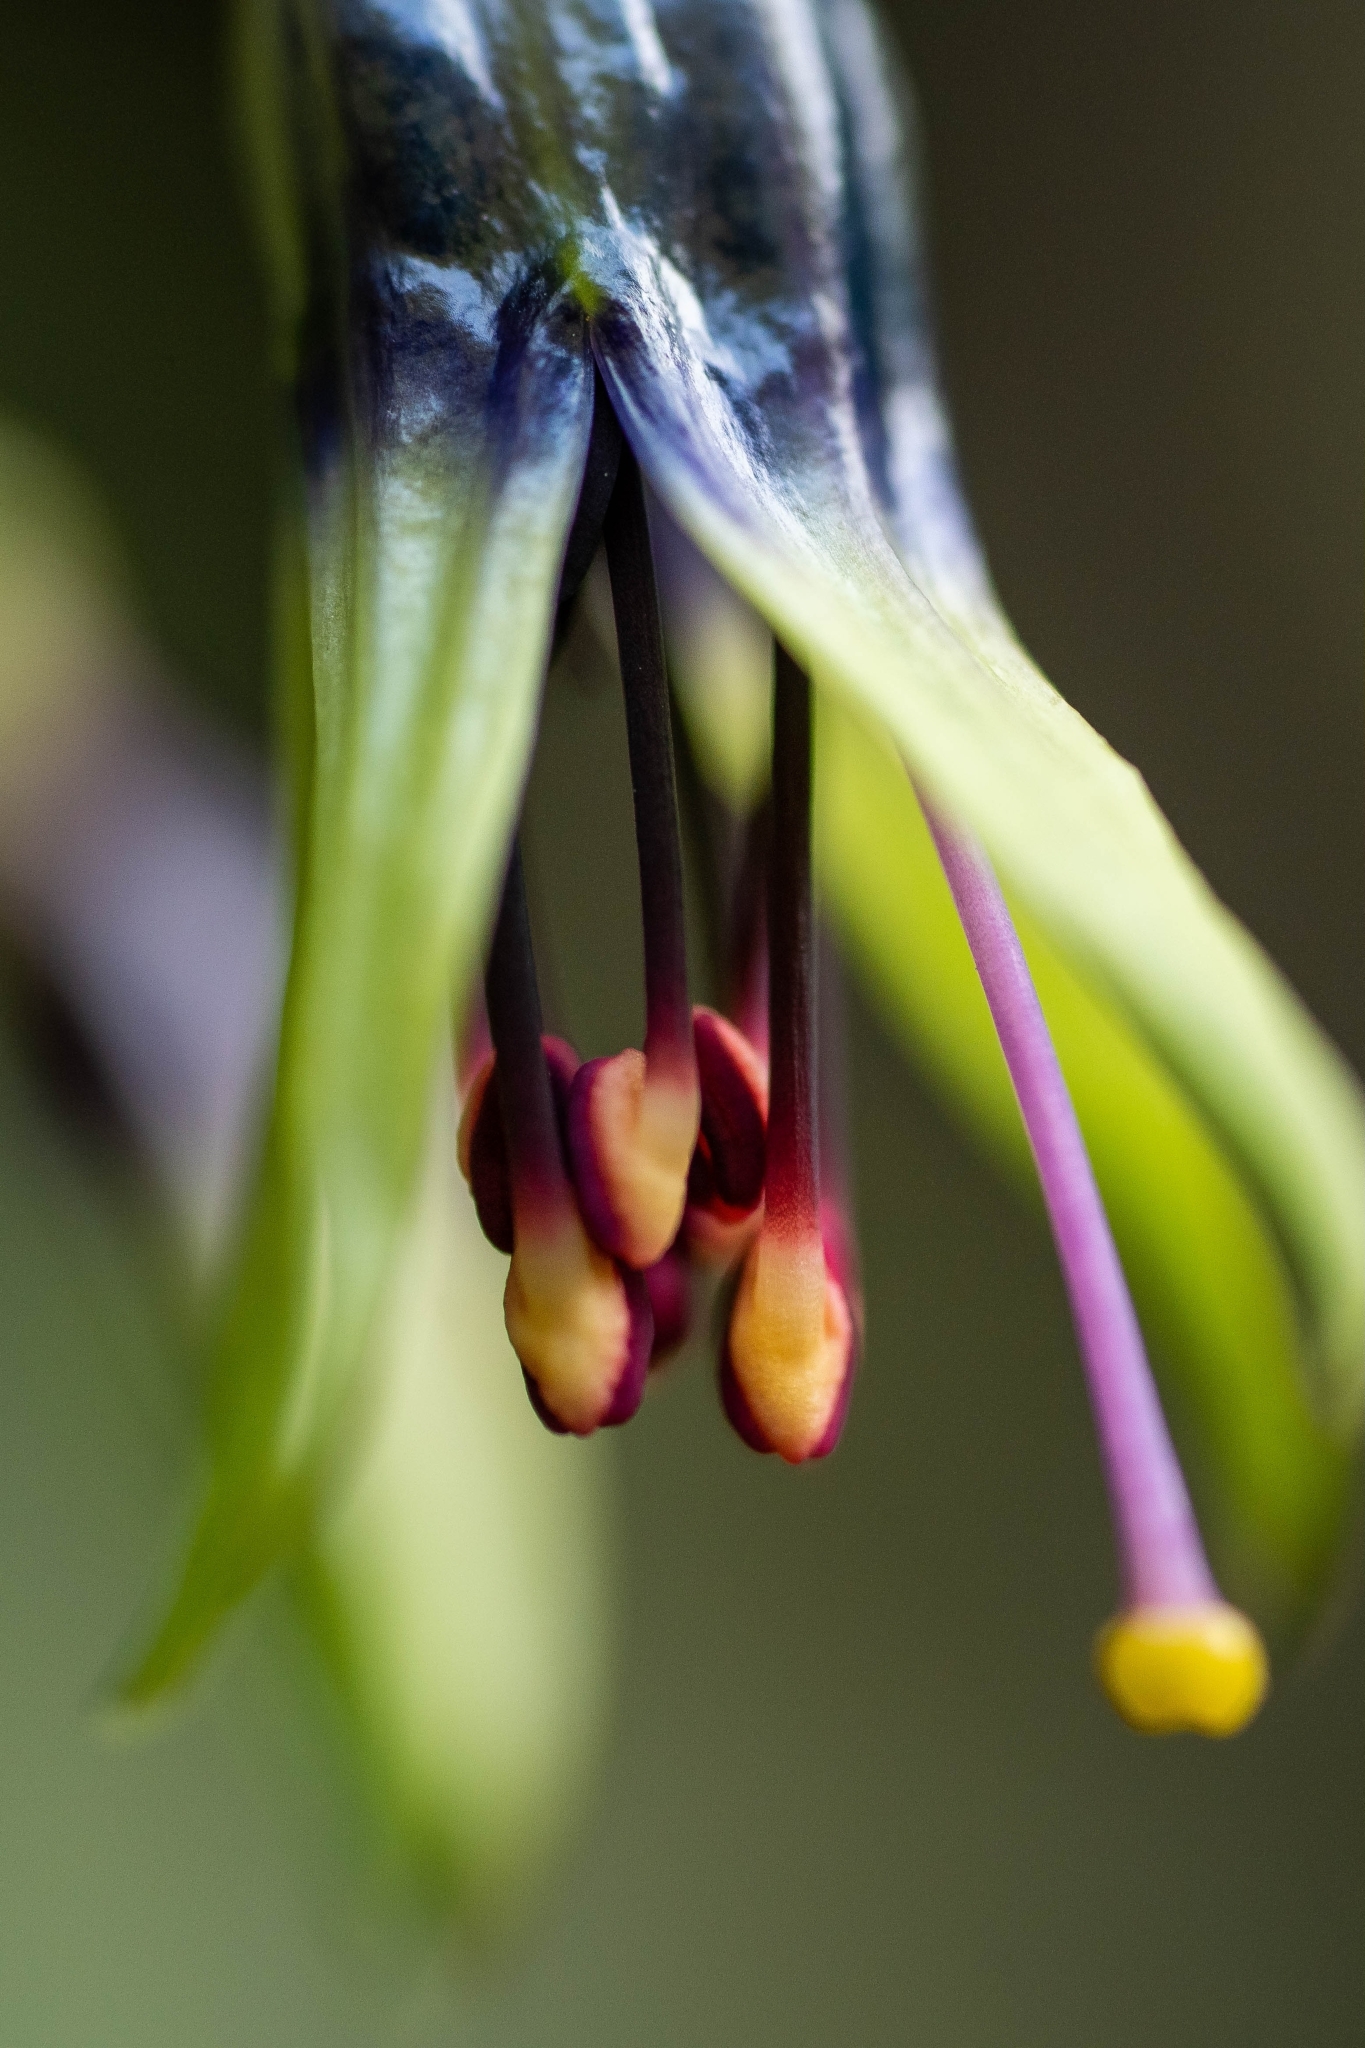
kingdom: Plantae
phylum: Tracheophyta
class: Magnoliopsida
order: Myrtales
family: Onagraceae
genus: Fuchsia
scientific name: Fuchsia excorticata
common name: Tree fuchsia
